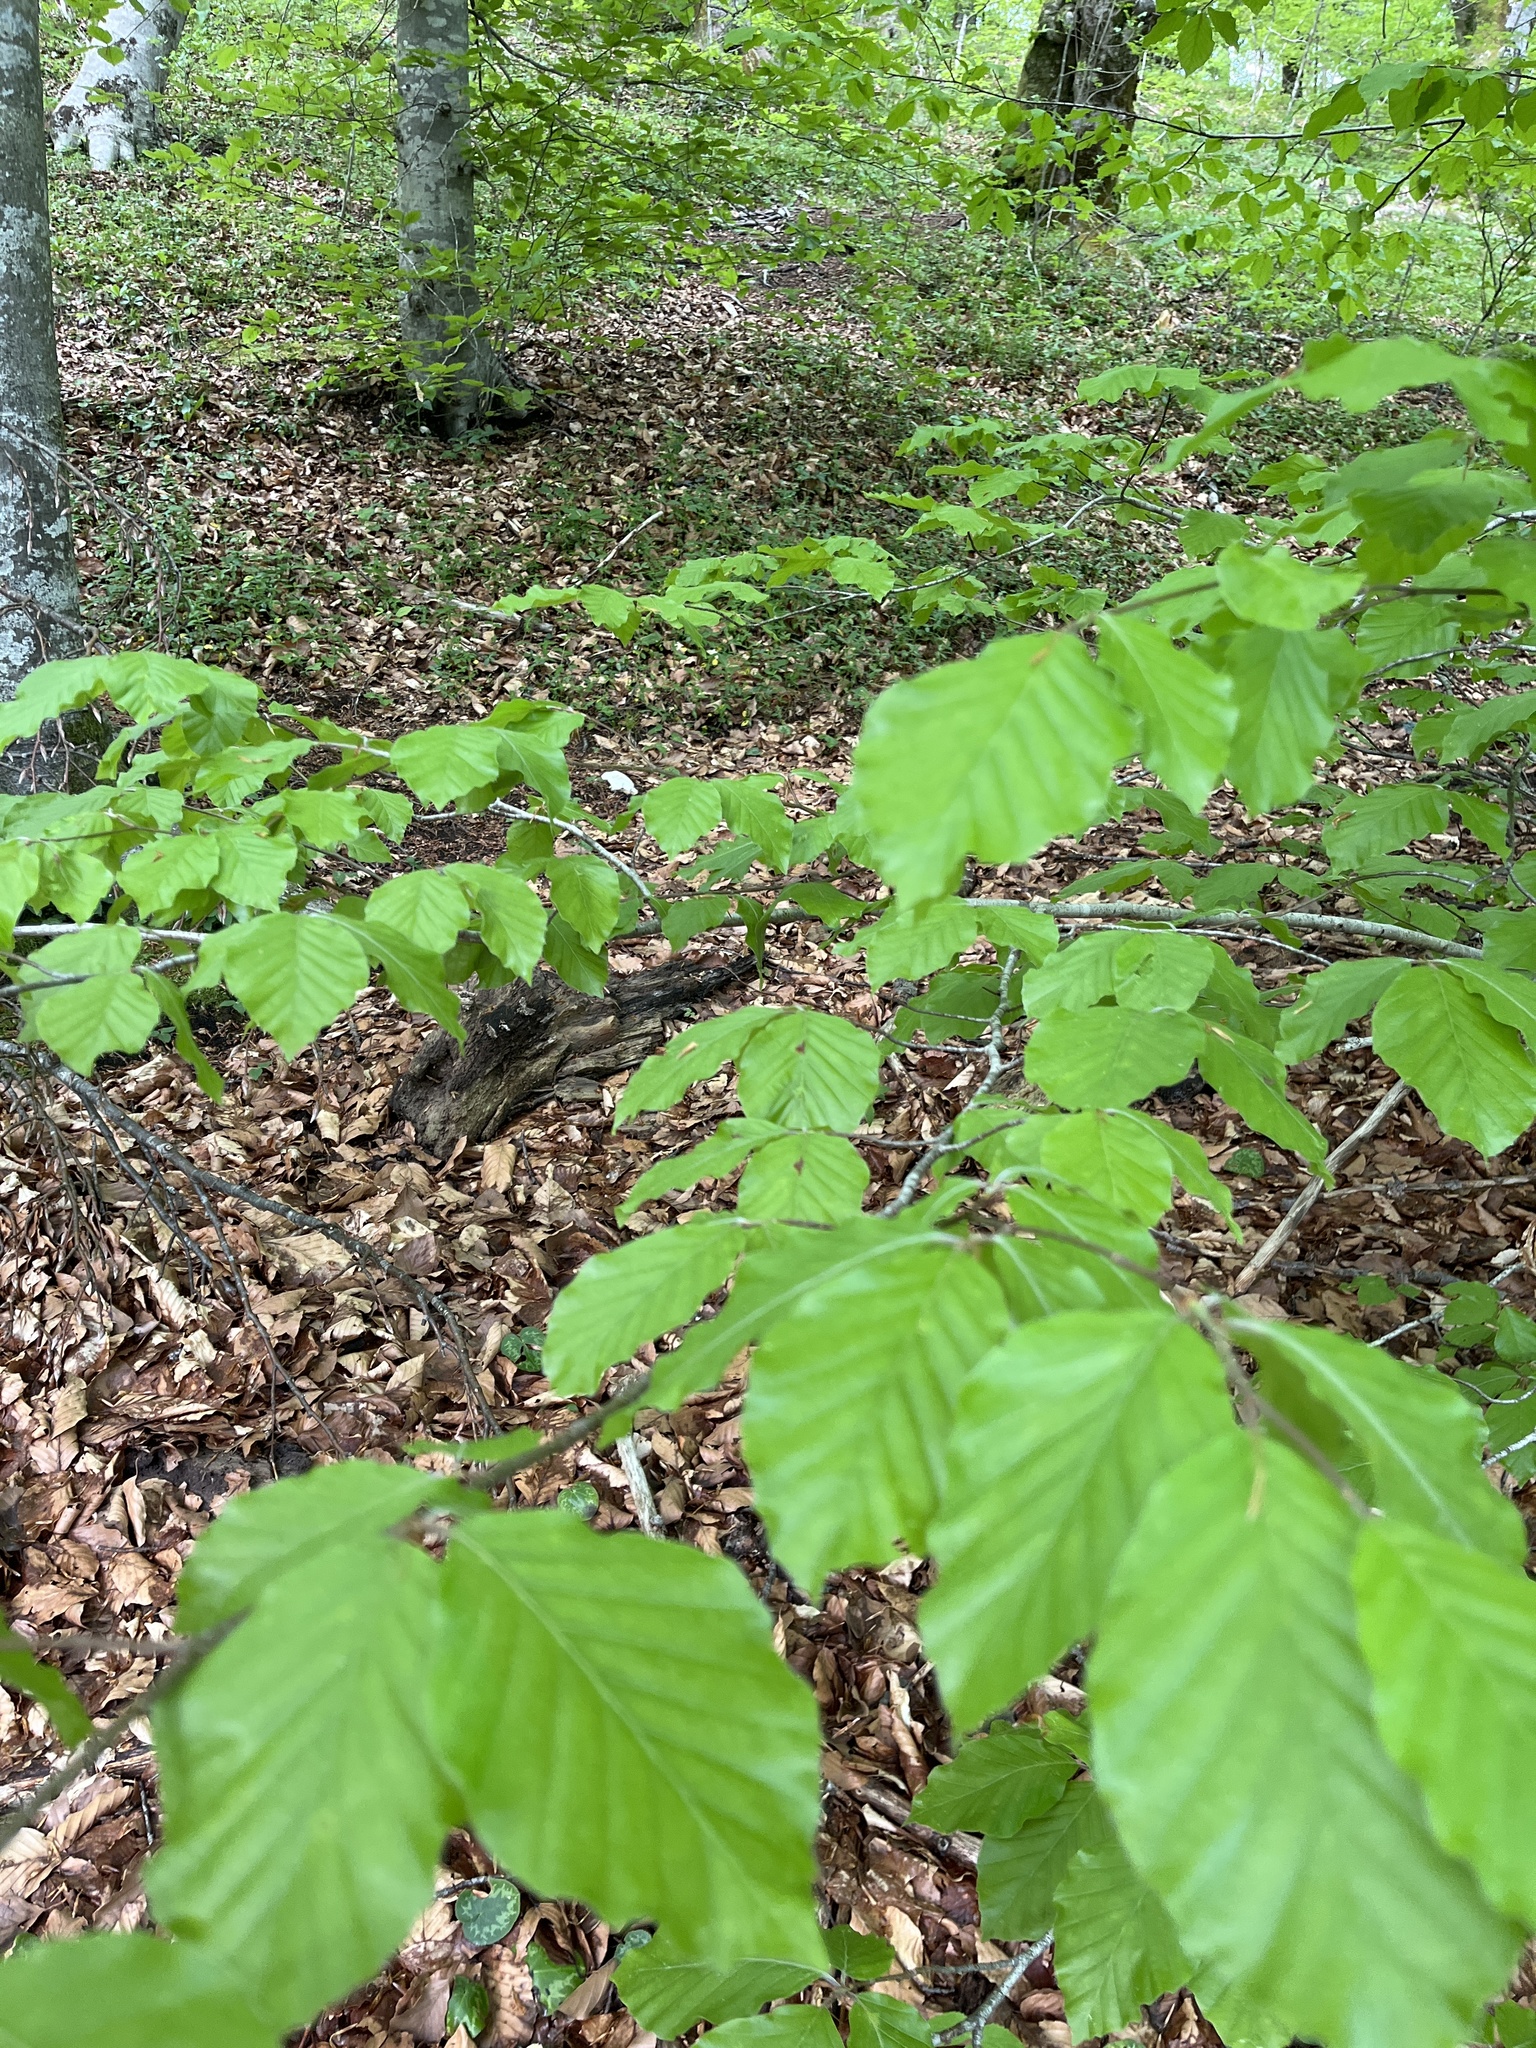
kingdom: Plantae
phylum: Tracheophyta
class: Magnoliopsida
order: Fagales
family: Fagaceae
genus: Fagus
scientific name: Fagus sylvatica
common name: Beech
